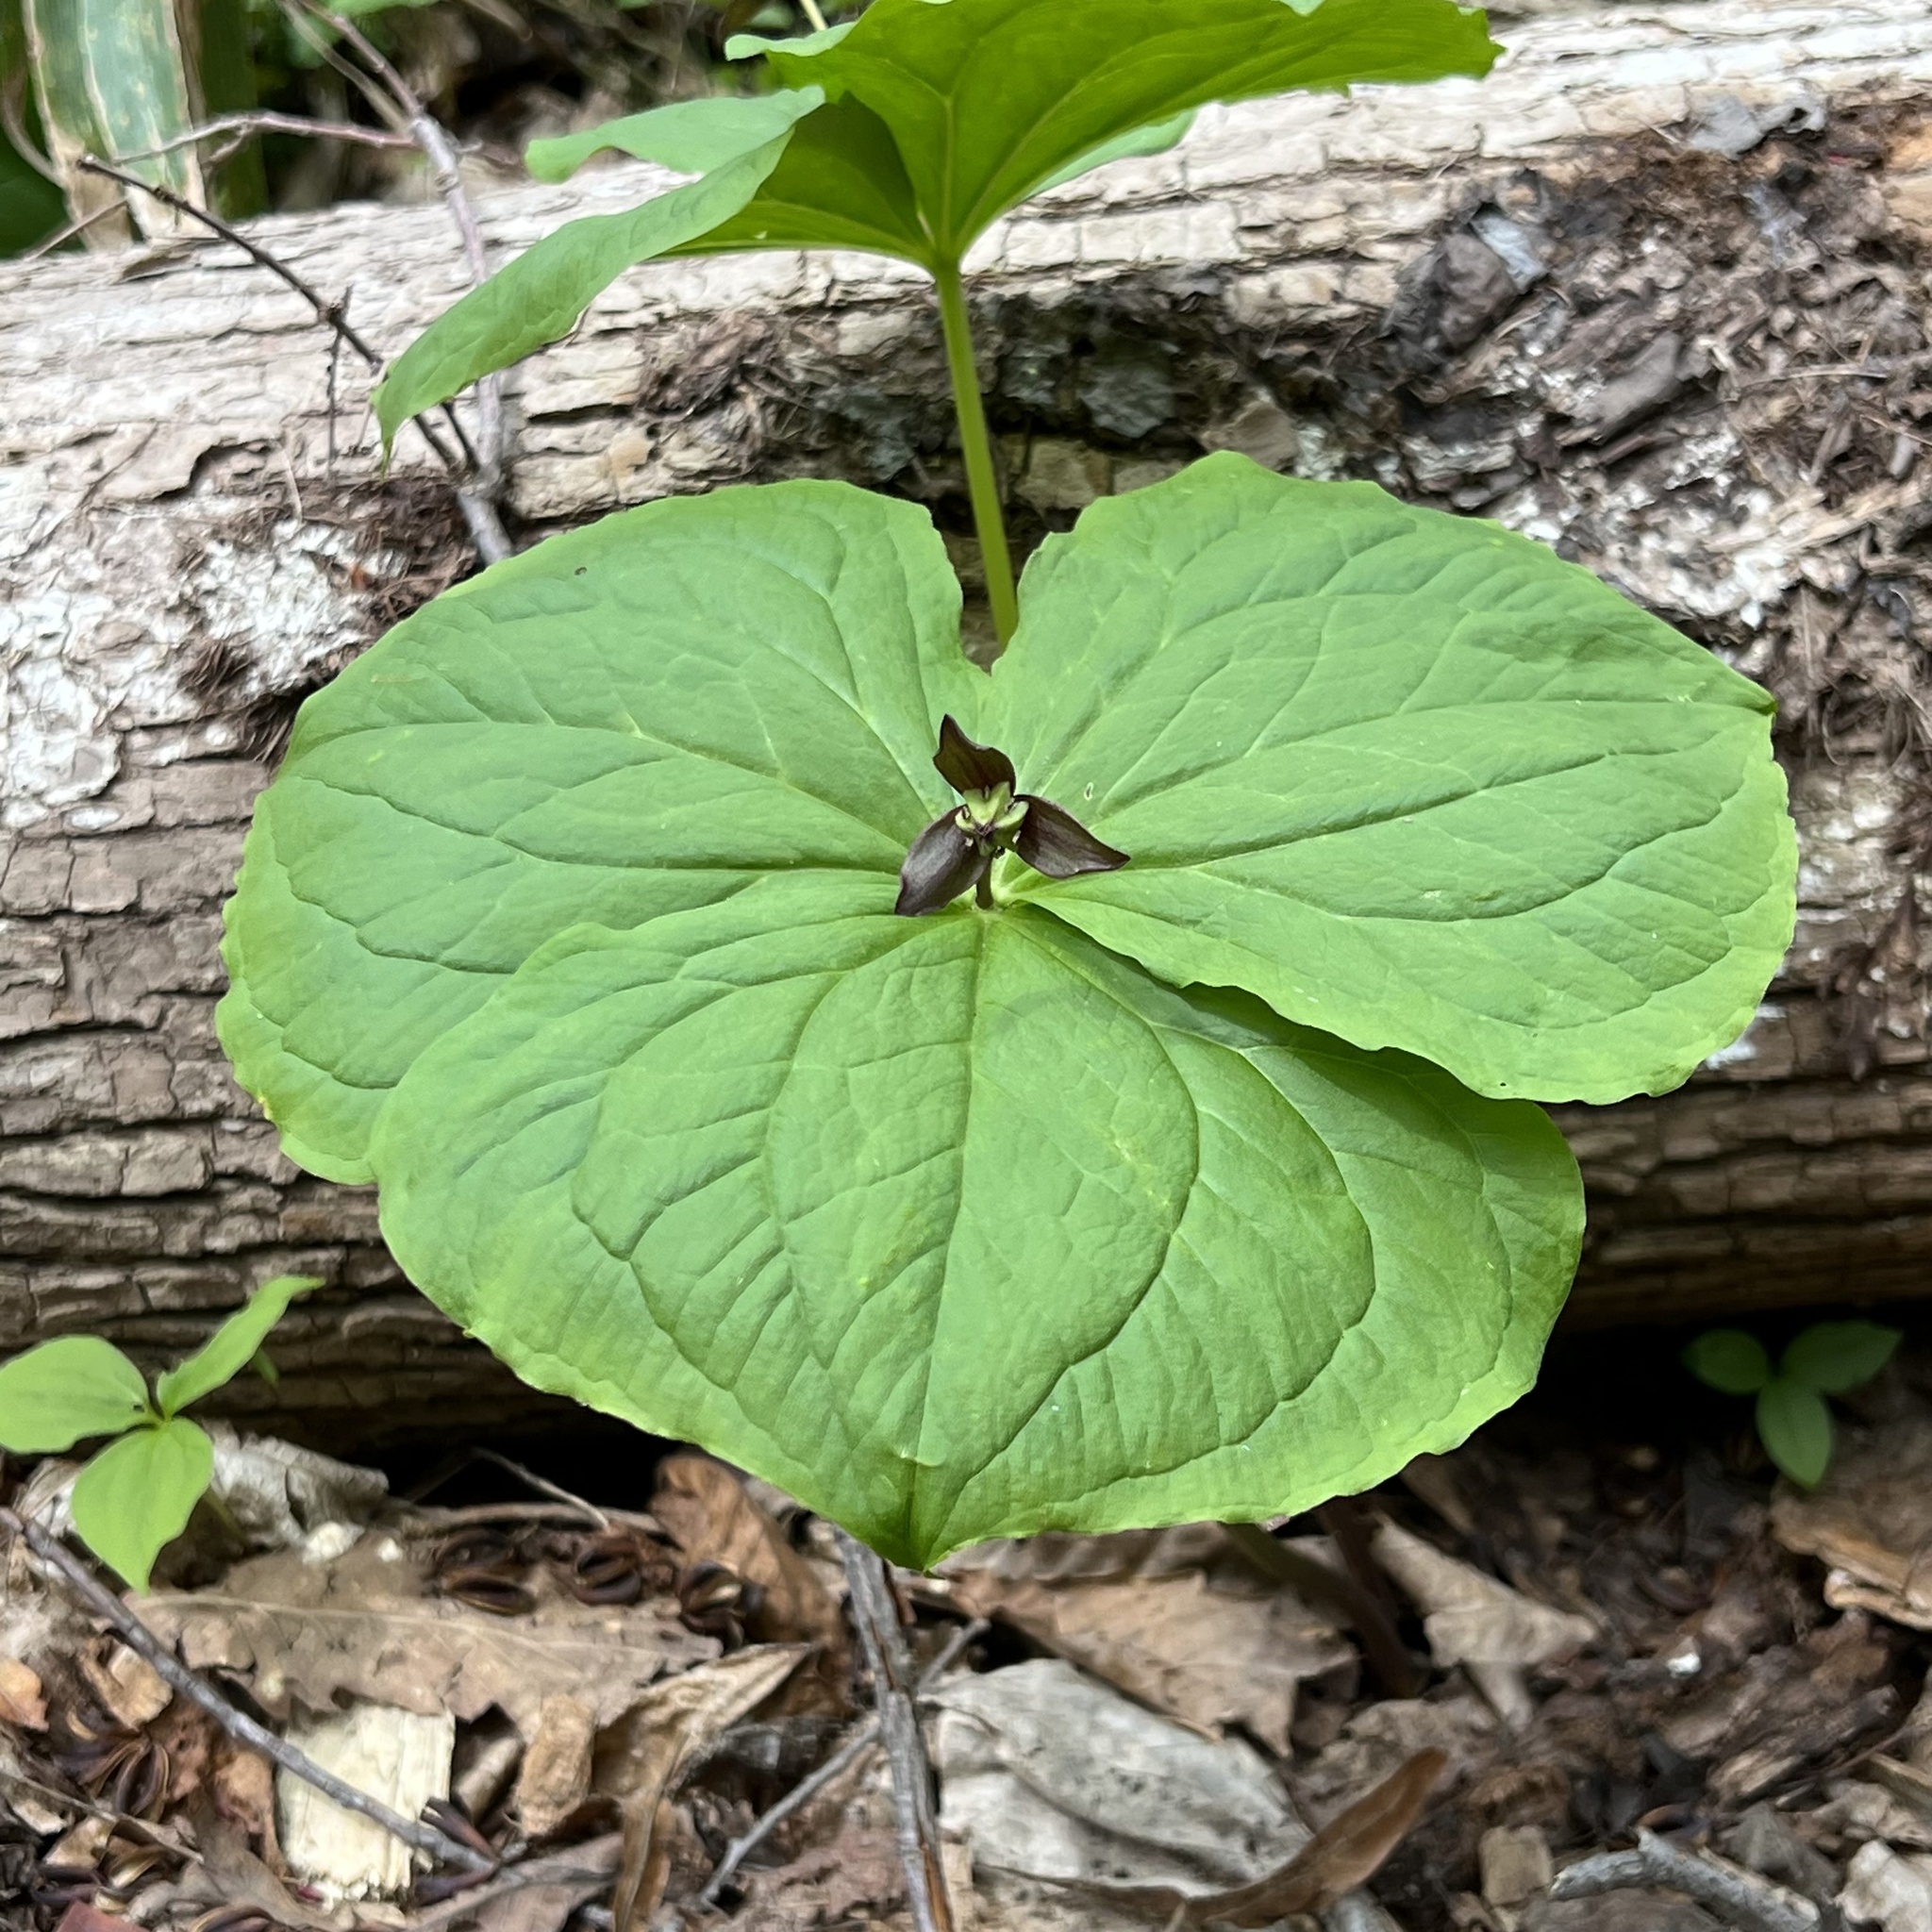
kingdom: Plantae
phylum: Tracheophyta
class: Liliopsida
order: Liliales
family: Melanthiaceae
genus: Trillium
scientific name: Trillium apetalon
